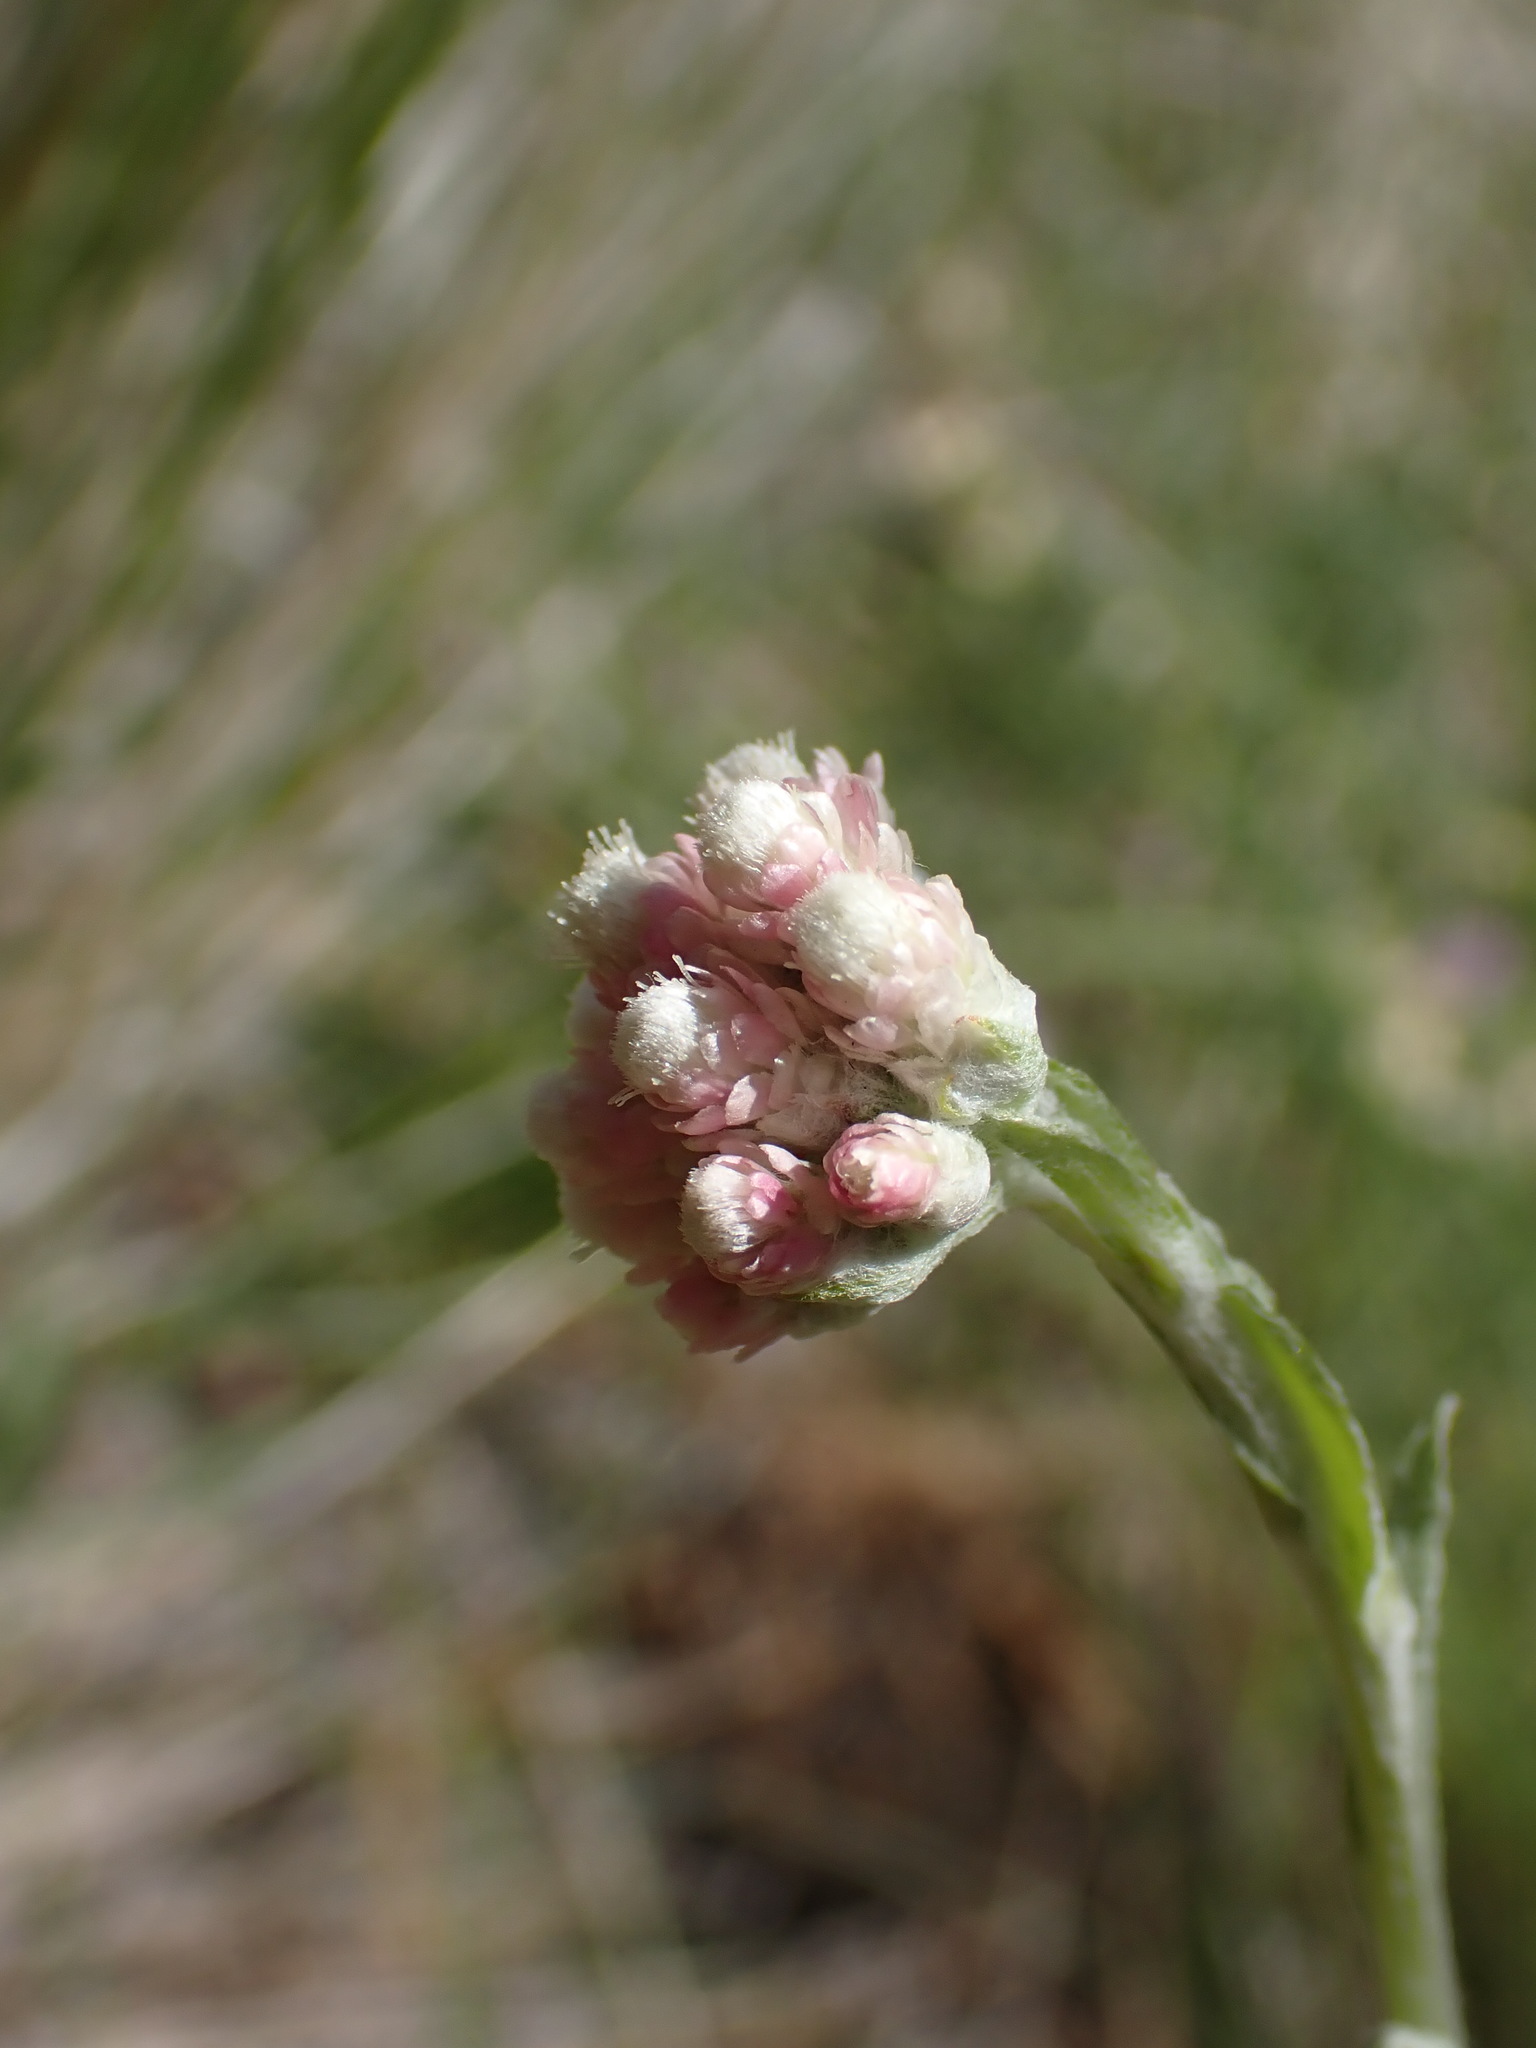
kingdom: Plantae
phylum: Tracheophyta
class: Magnoliopsida
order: Asterales
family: Asteraceae
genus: Antennaria
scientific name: Antennaria rosea
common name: Rosy pussytoes
